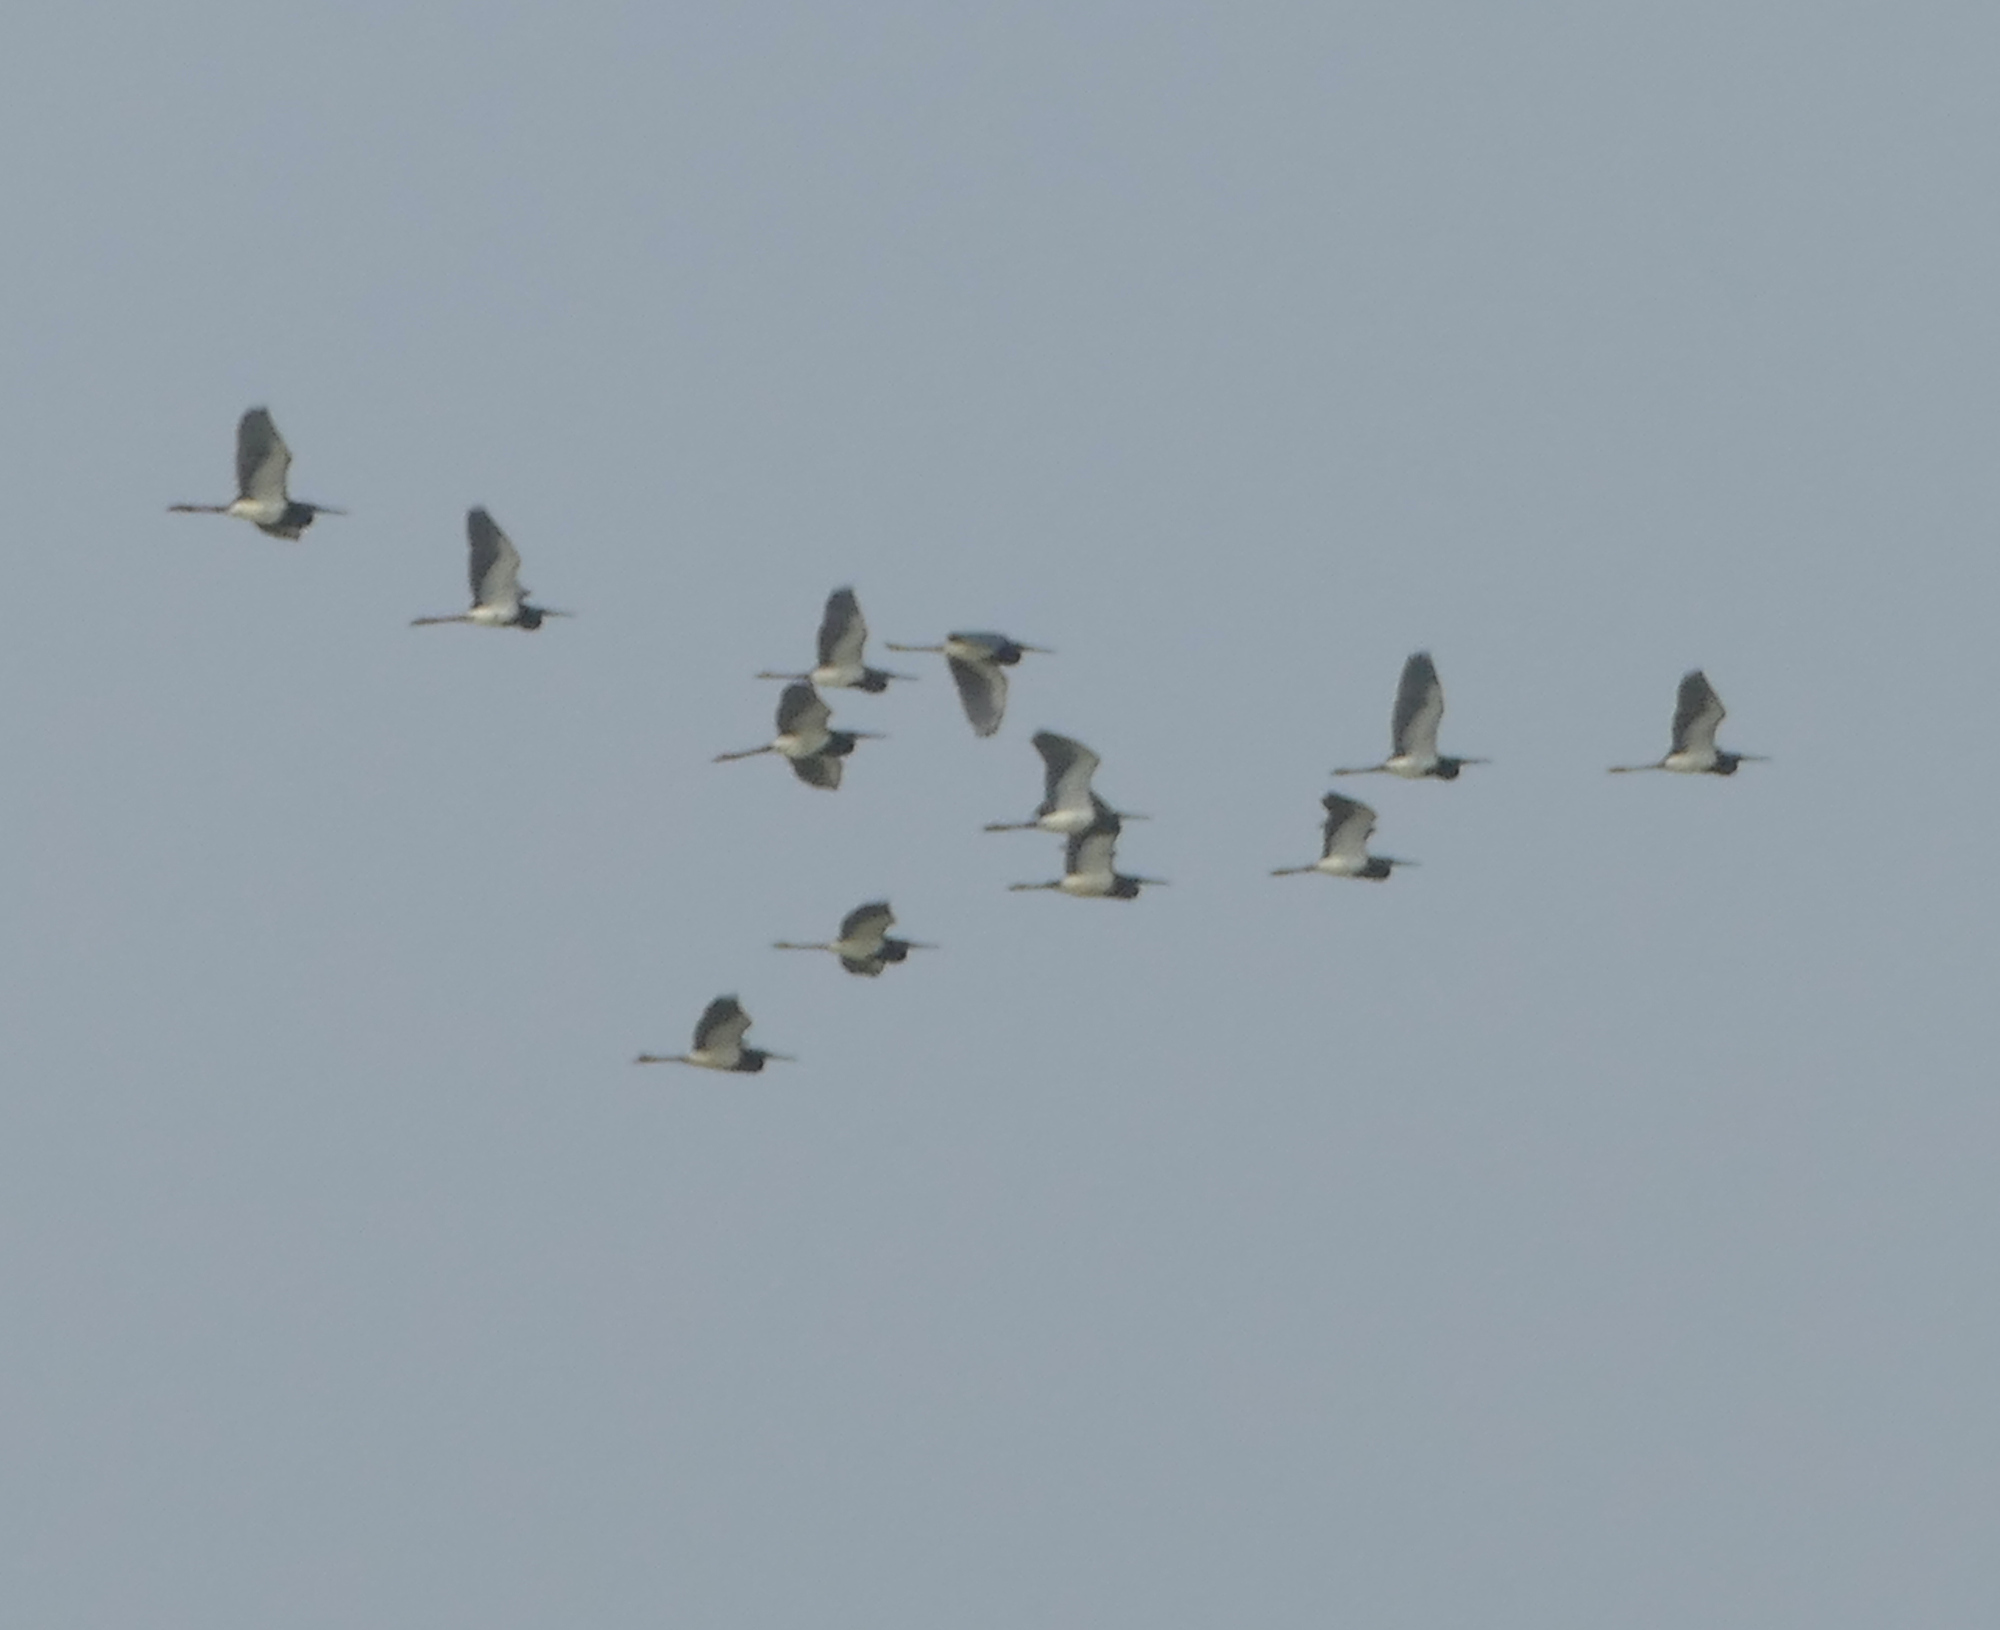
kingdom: Animalia
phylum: Chordata
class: Aves
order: Pelecaniformes
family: Ardeidae
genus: Egretta
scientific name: Egretta tricolor
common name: Tricolored heron
